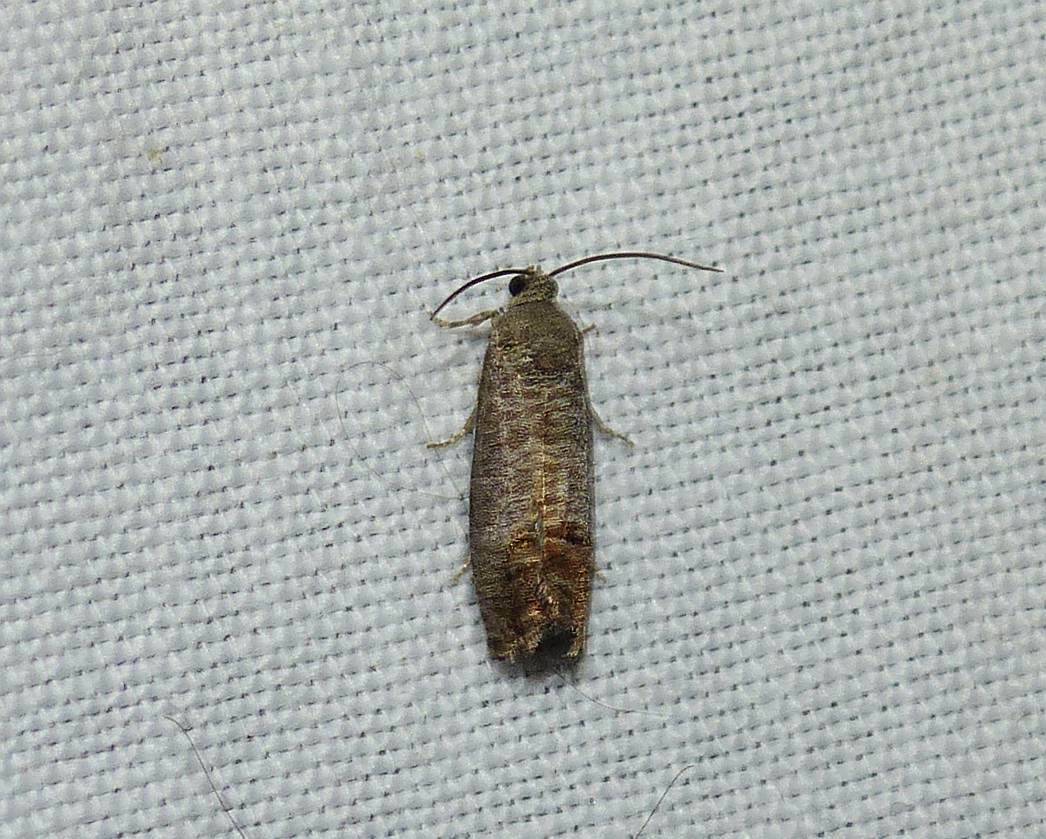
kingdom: Animalia
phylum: Arthropoda
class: Insecta
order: Lepidoptera
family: Tortricidae
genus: Cydia
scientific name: Cydia pomonella
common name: Codling moth
